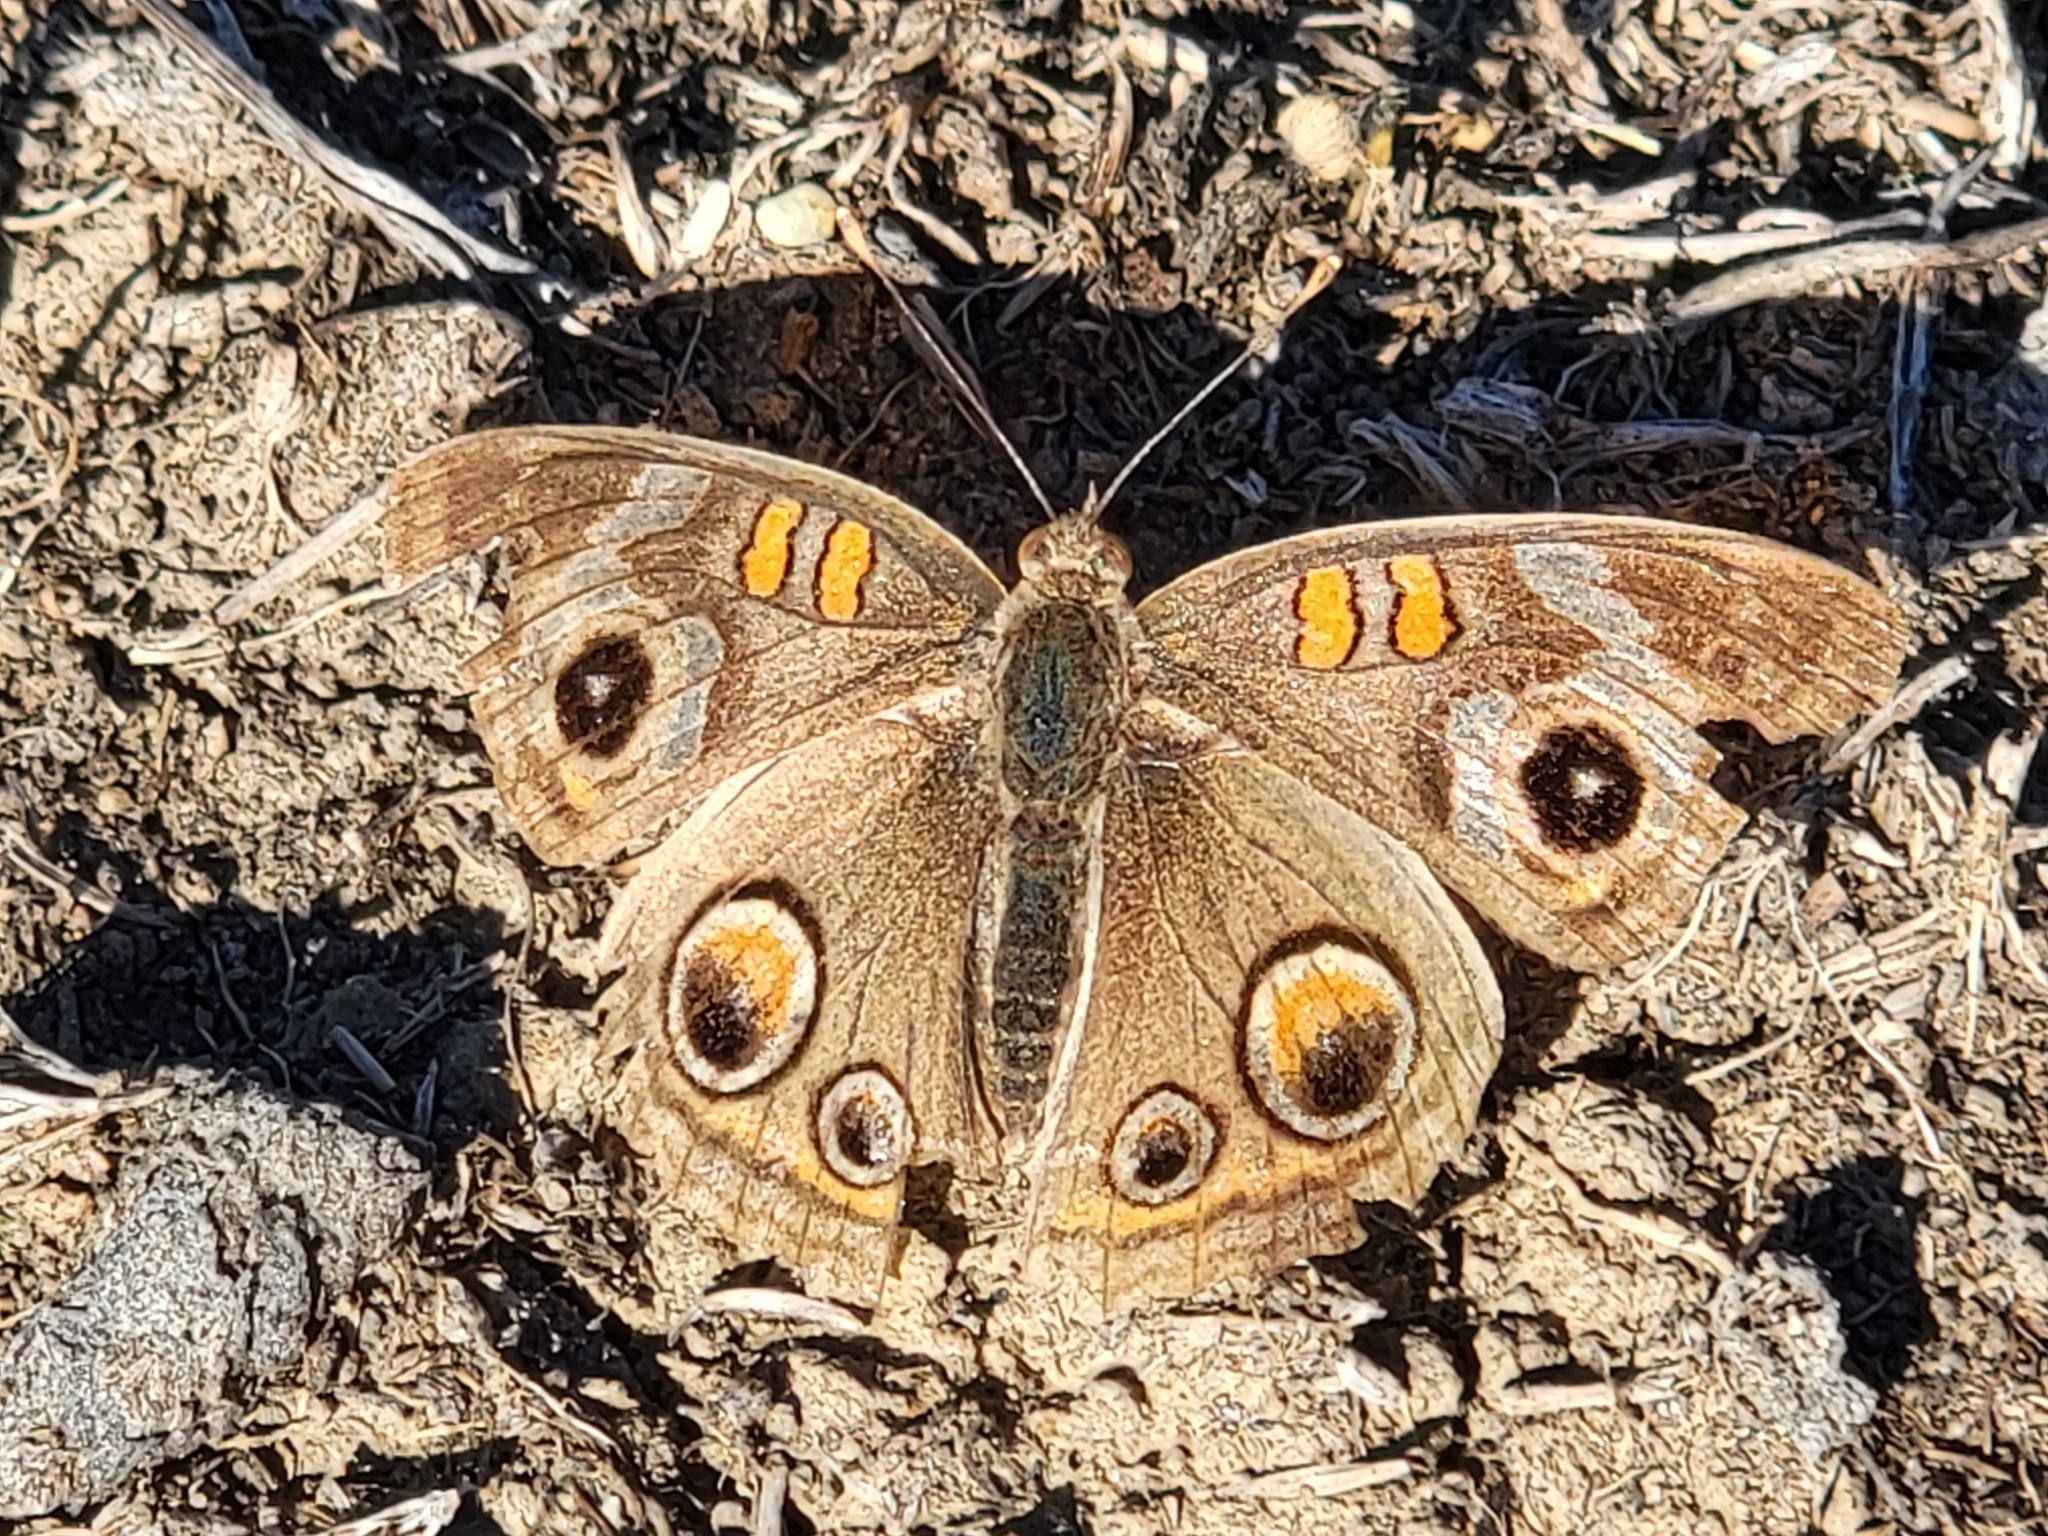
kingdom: Animalia
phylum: Arthropoda
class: Insecta
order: Lepidoptera
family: Nymphalidae
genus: Junonia
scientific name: Junonia grisea
